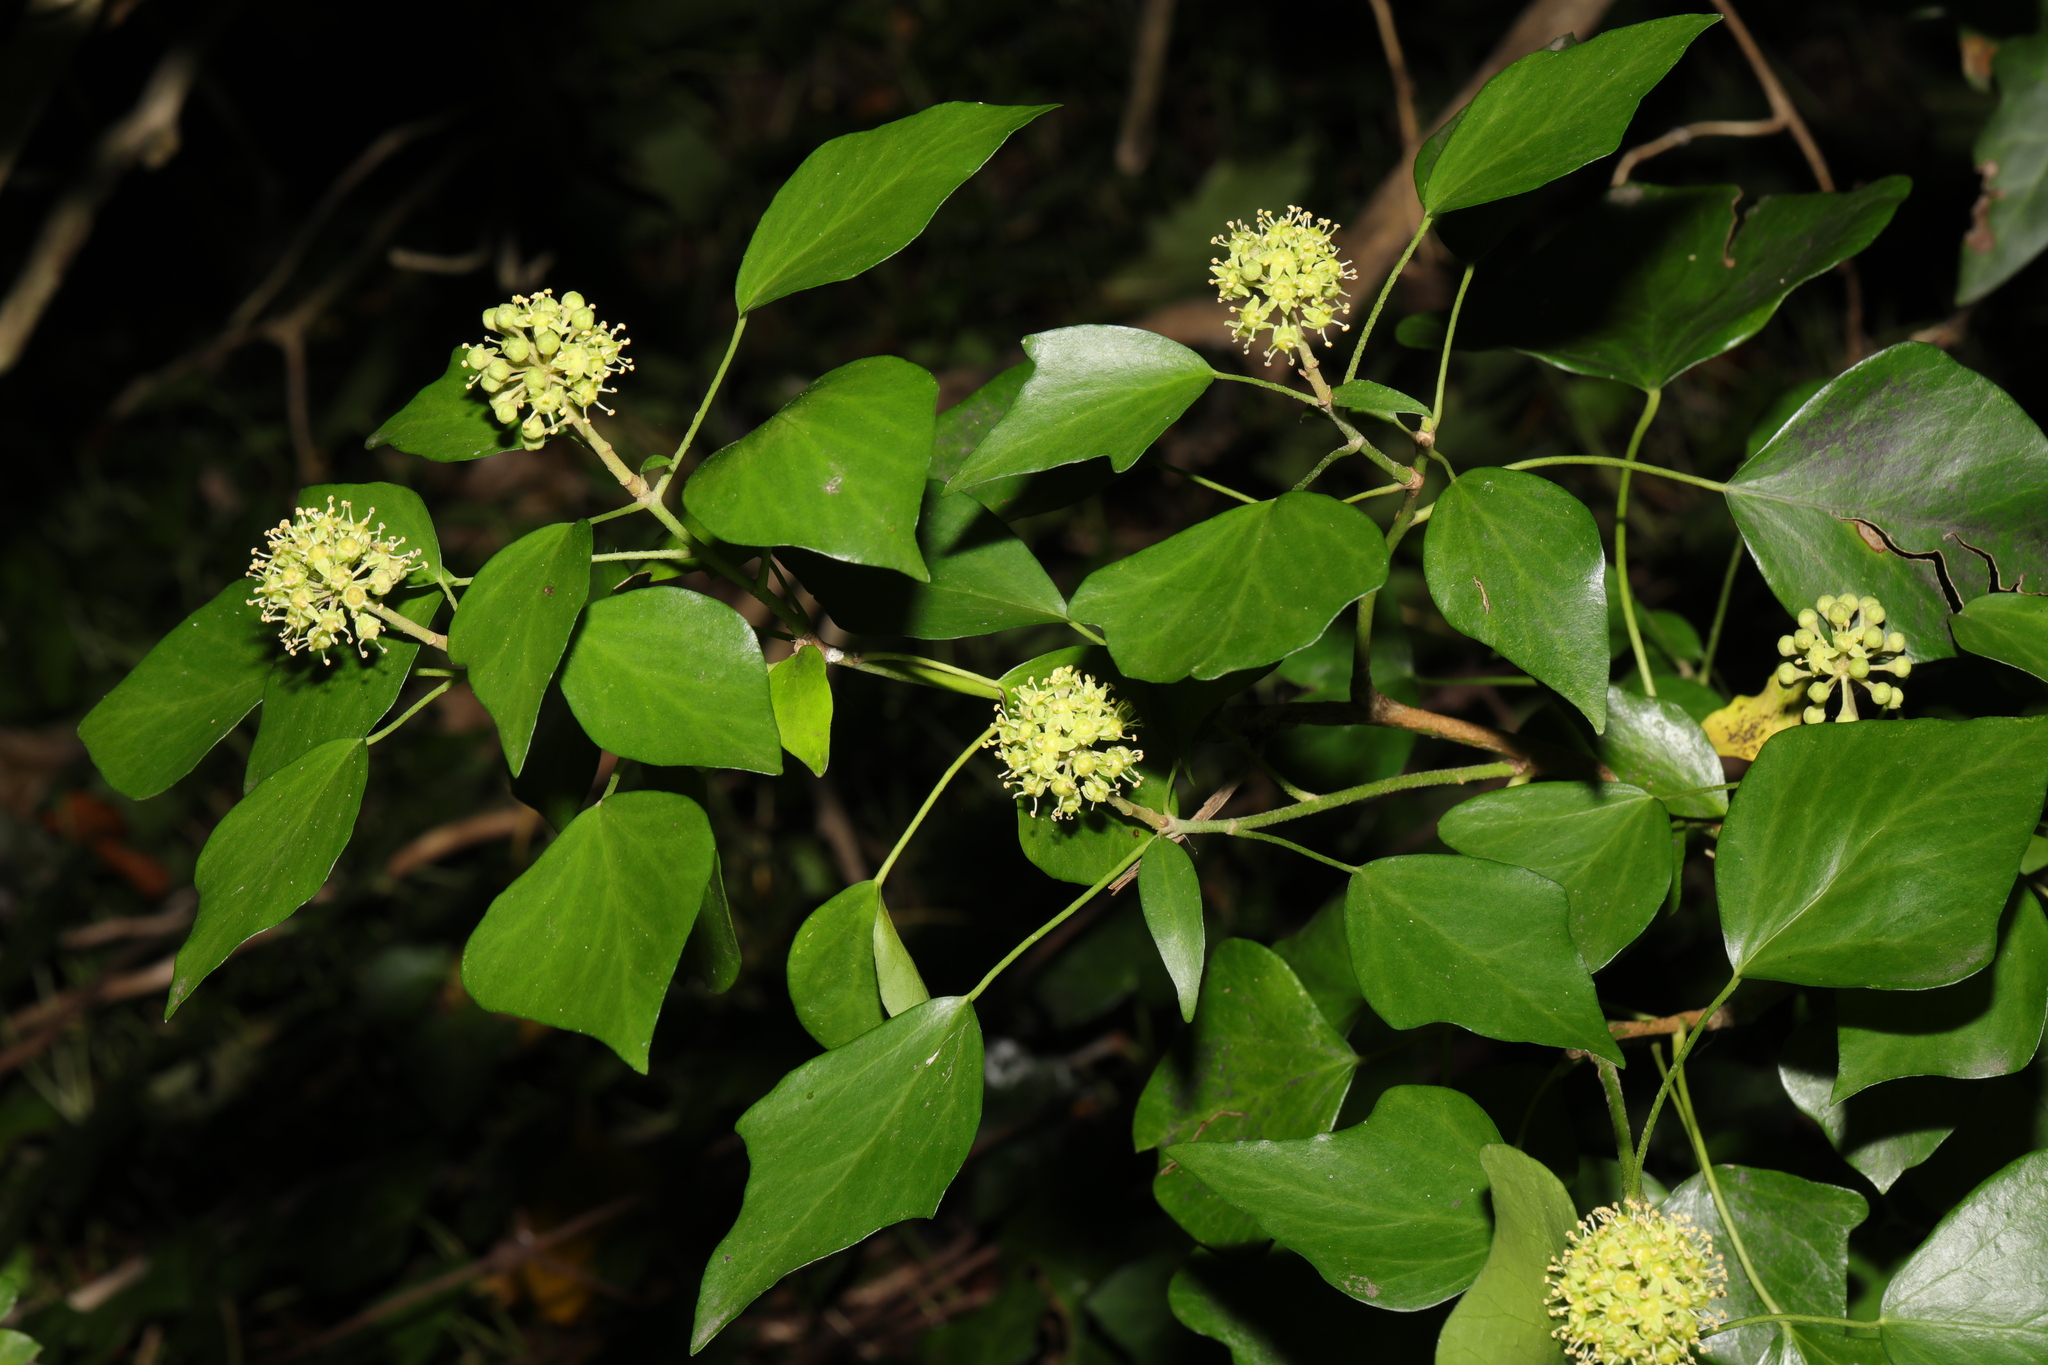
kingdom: Plantae
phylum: Tracheophyta
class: Magnoliopsida
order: Apiales
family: Araliaceae
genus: Hedera
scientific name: Hedera helix
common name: Ivy
